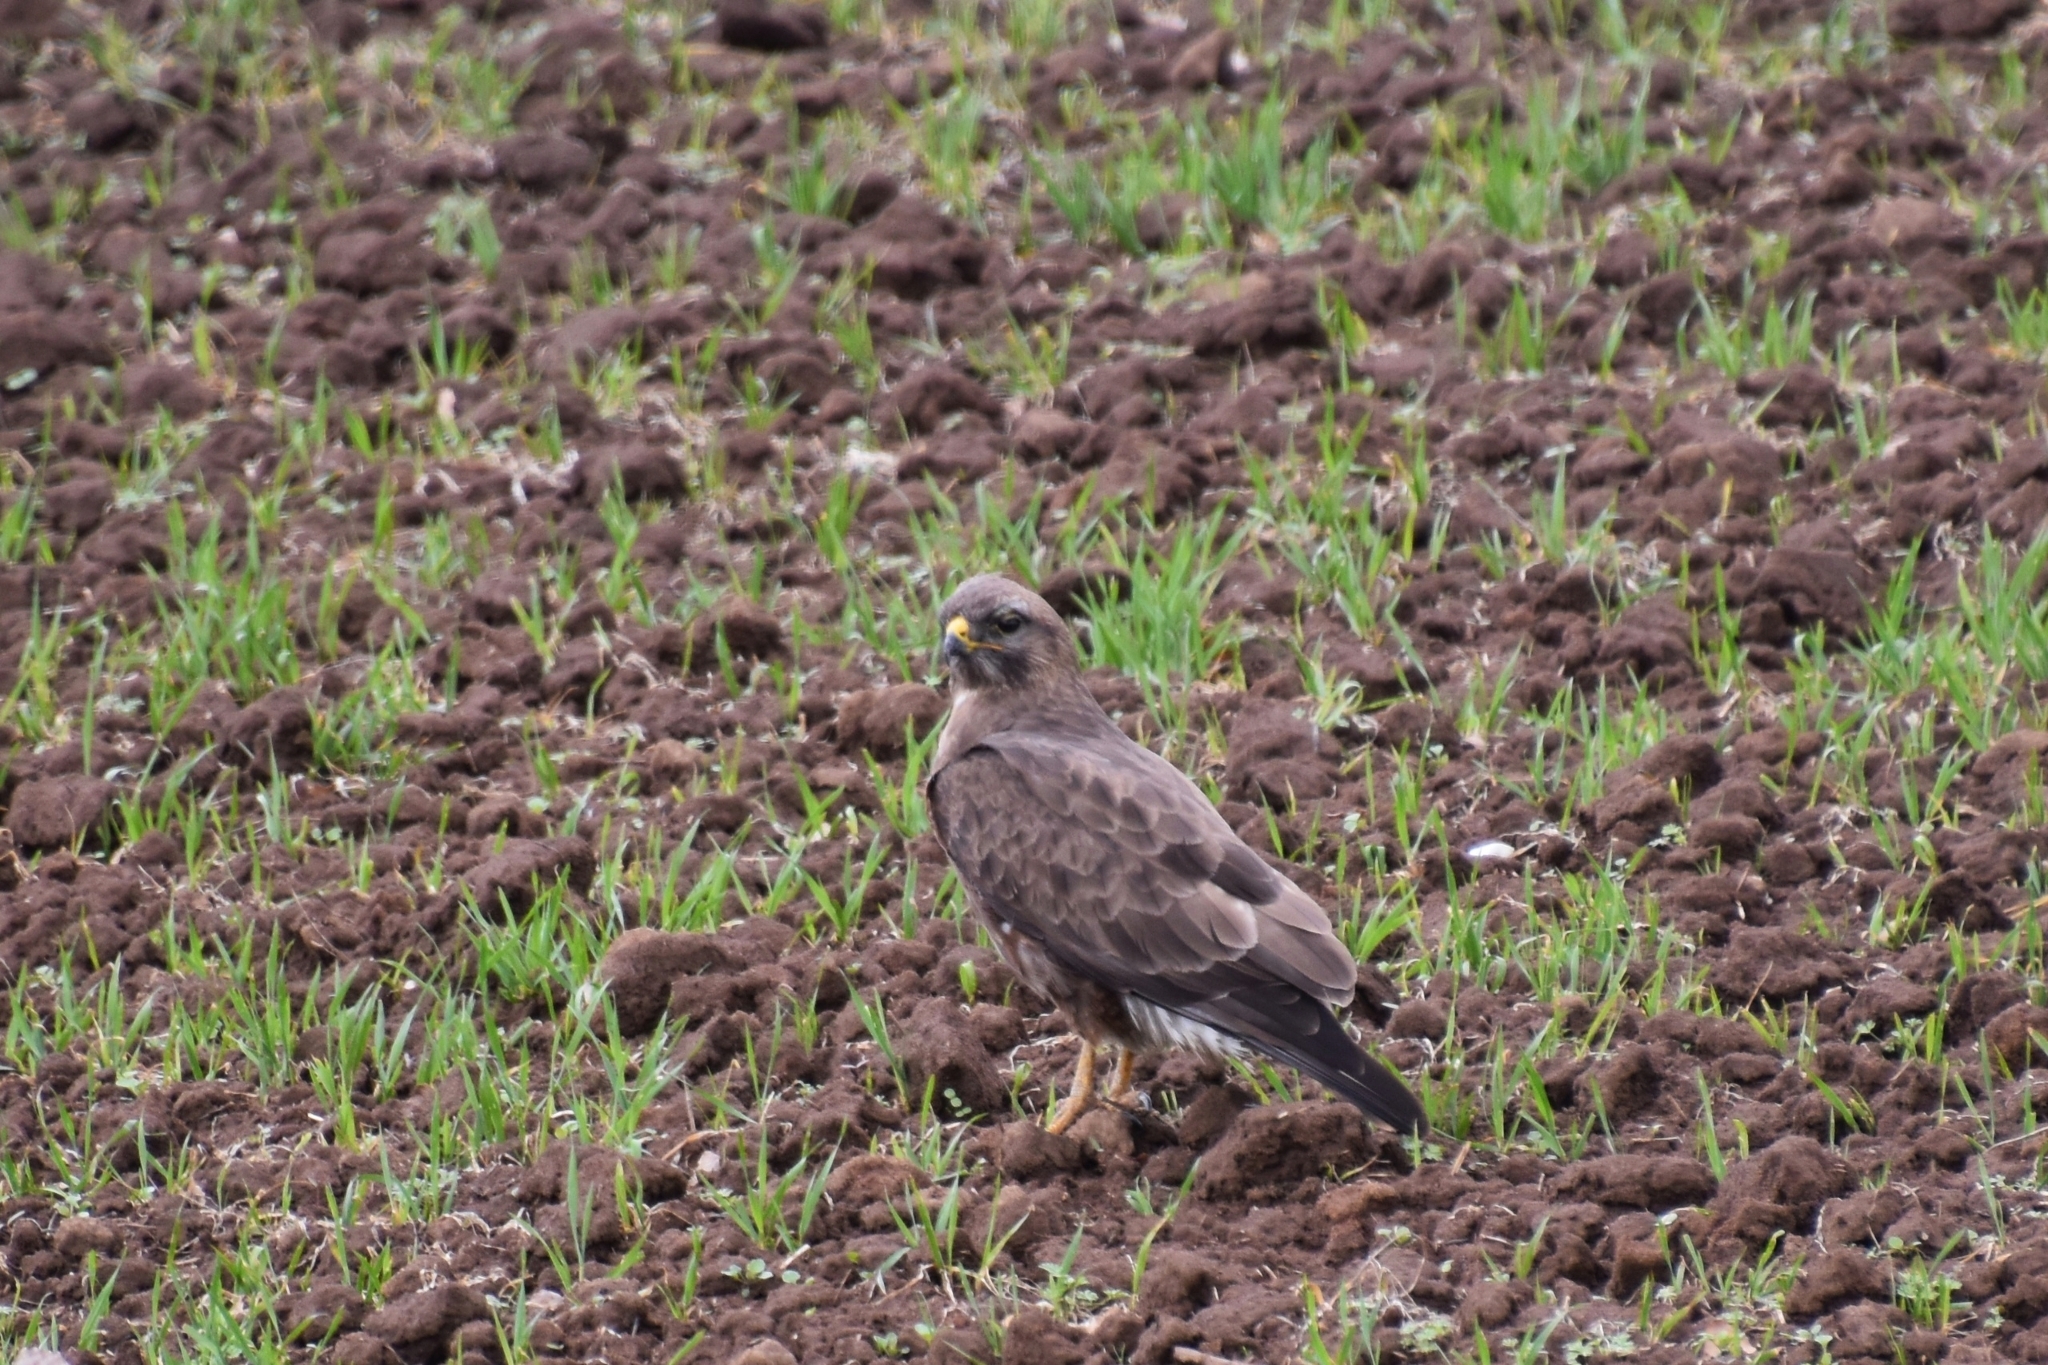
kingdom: Animalia
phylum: Chordata
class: Aves
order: Accipitriformes
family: Accipitridae
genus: Buteo
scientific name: Buteo buteo
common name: Common buzzard
